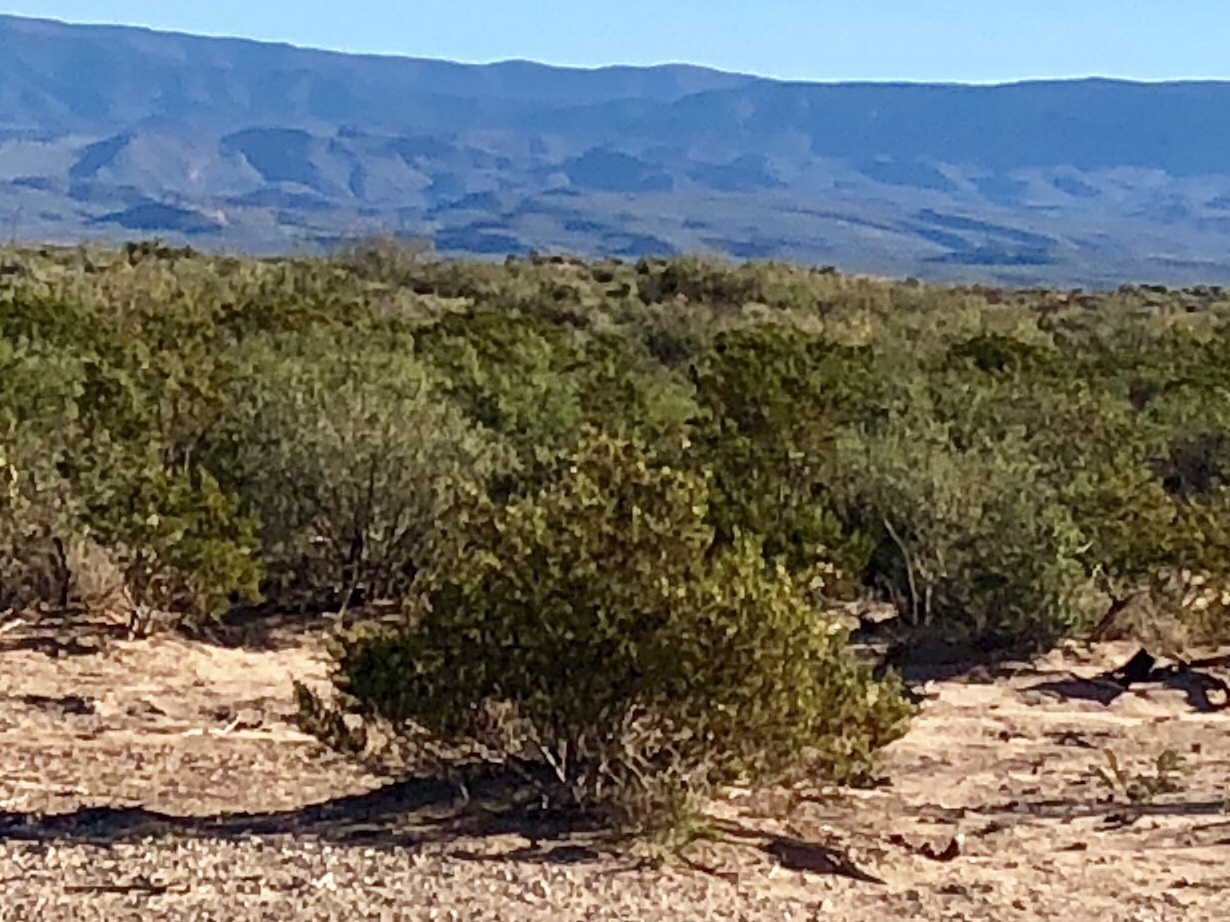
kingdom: Plantae
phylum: Tracheophyta
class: Magnoliopsida
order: Zygophyllales
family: Zygophyllaceae
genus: Larrea
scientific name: Larrea tridentata
